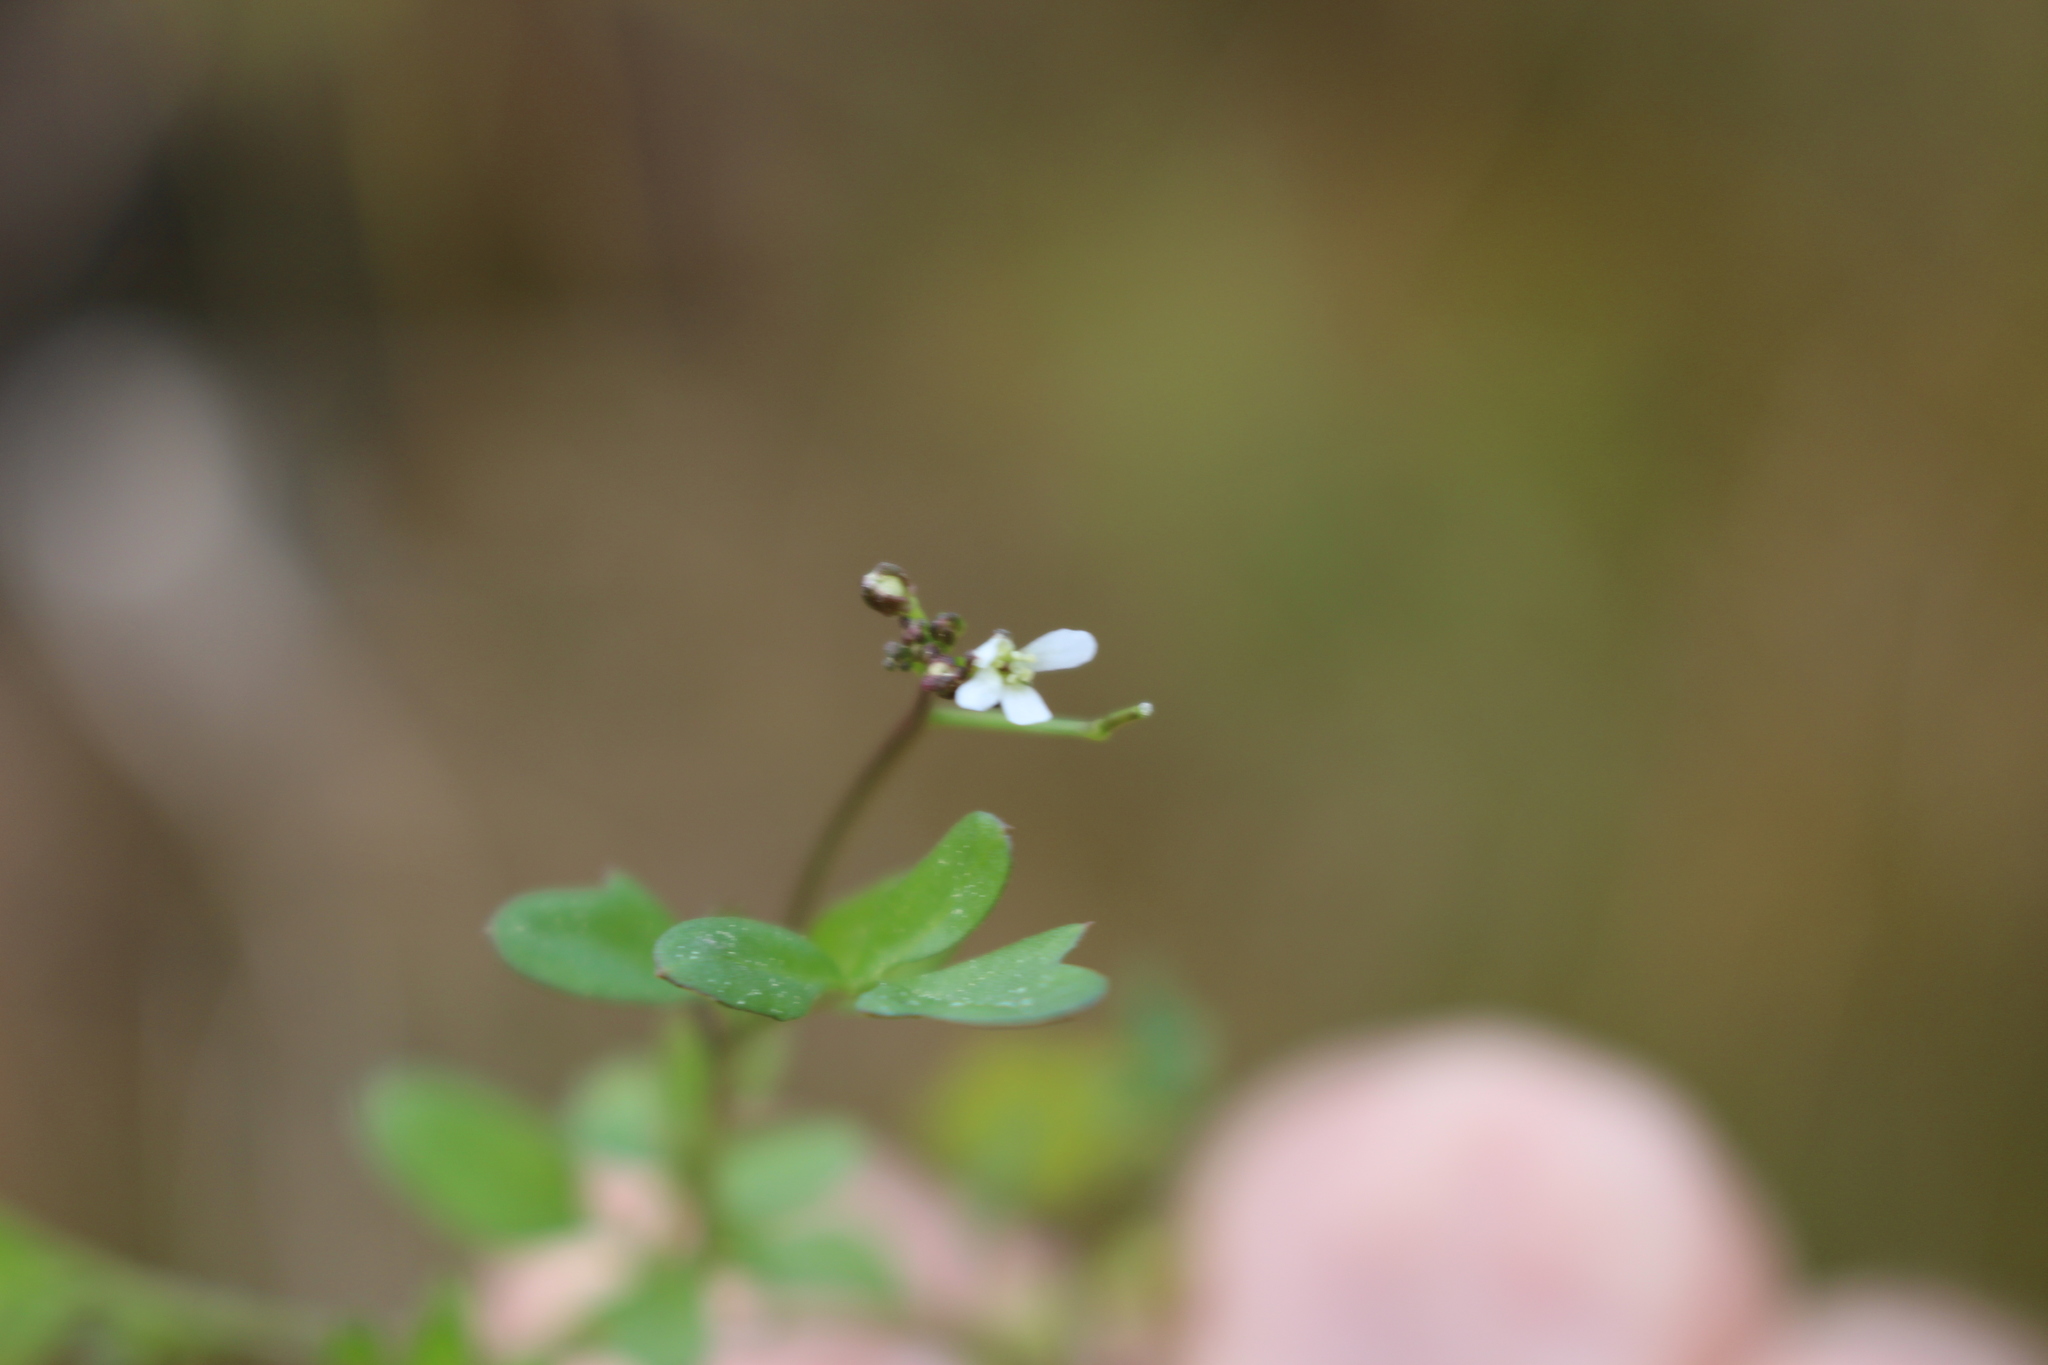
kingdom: Plantae
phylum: Tracheophyta
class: Magnoliopsida
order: Brassicales
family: Brassicaceae
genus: Cardamine
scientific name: Cardamine hirsuta
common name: Hairy bittercress
